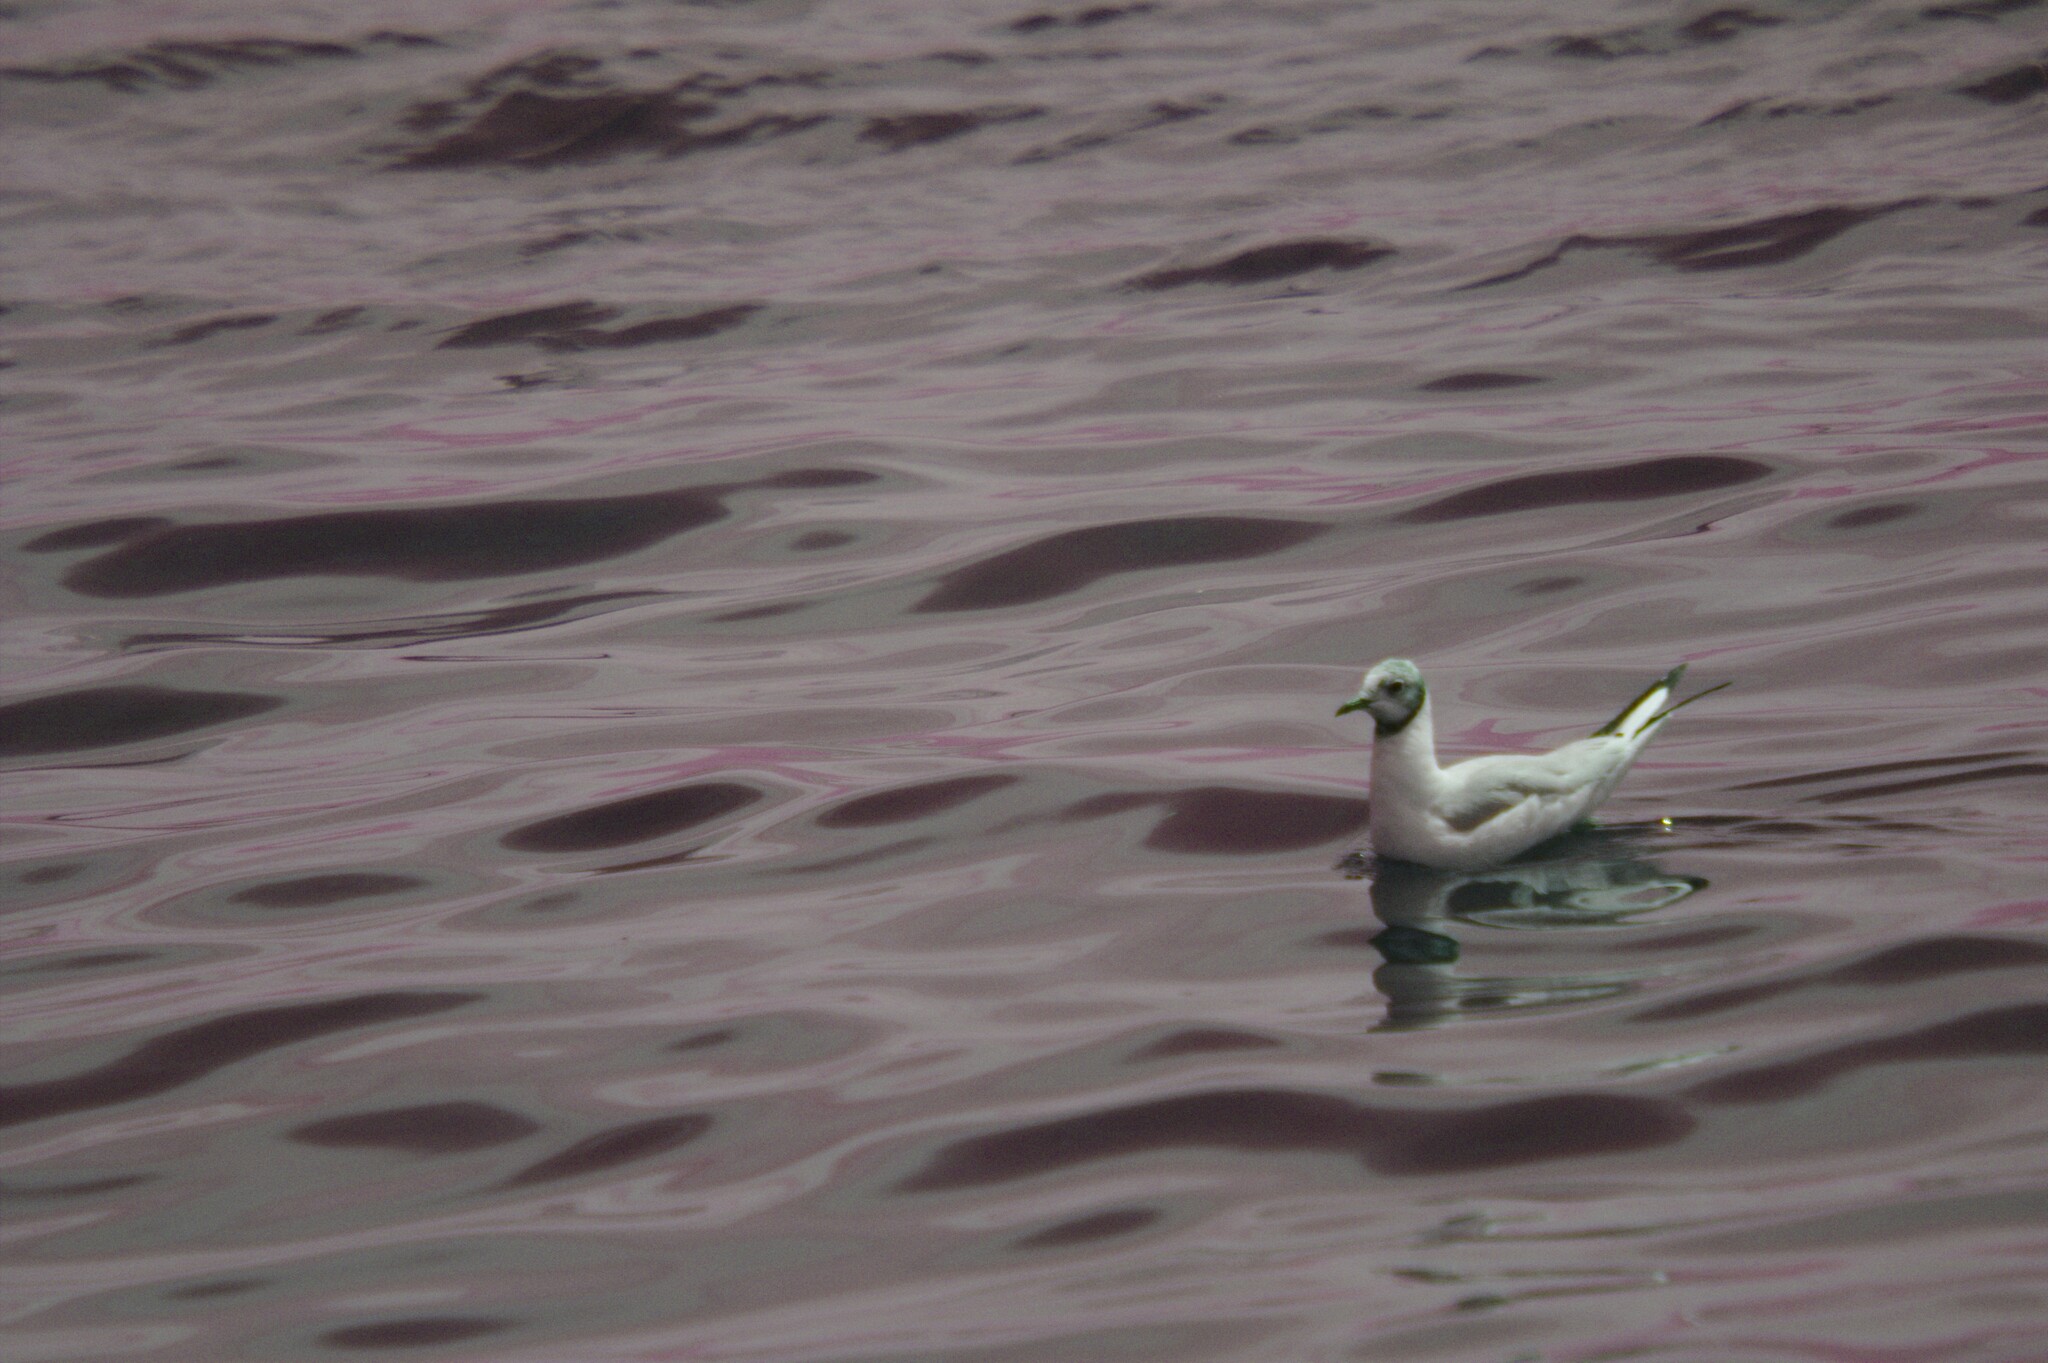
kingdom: Animalia
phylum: Chordata
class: Aves
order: Charadriiformes
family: Laridae
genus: Chroicocephalus
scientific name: Chroicocephalus ridibundus
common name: Black-headed gull
